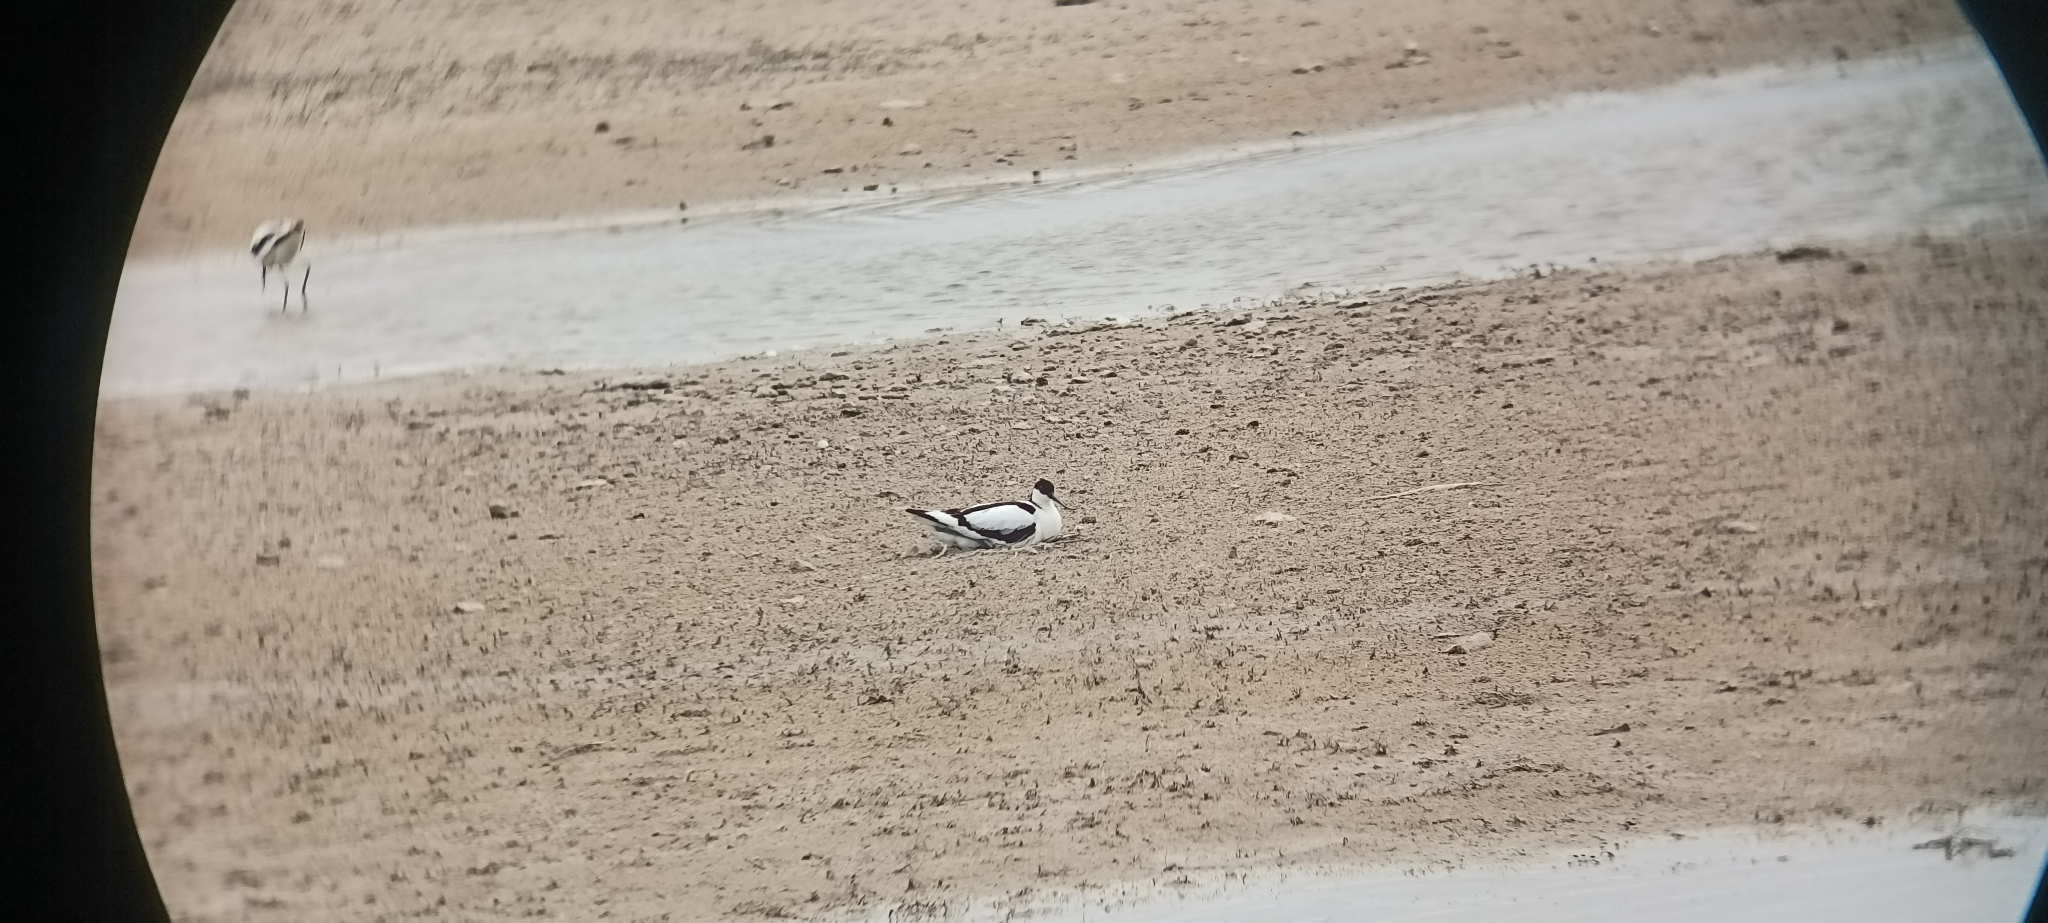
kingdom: Animalia
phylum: Chordata
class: Aves
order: Charadriiformes
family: Recurvirostridae
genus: Recurvirostra
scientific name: Recurvirostra avosetta
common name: Pied avocet
